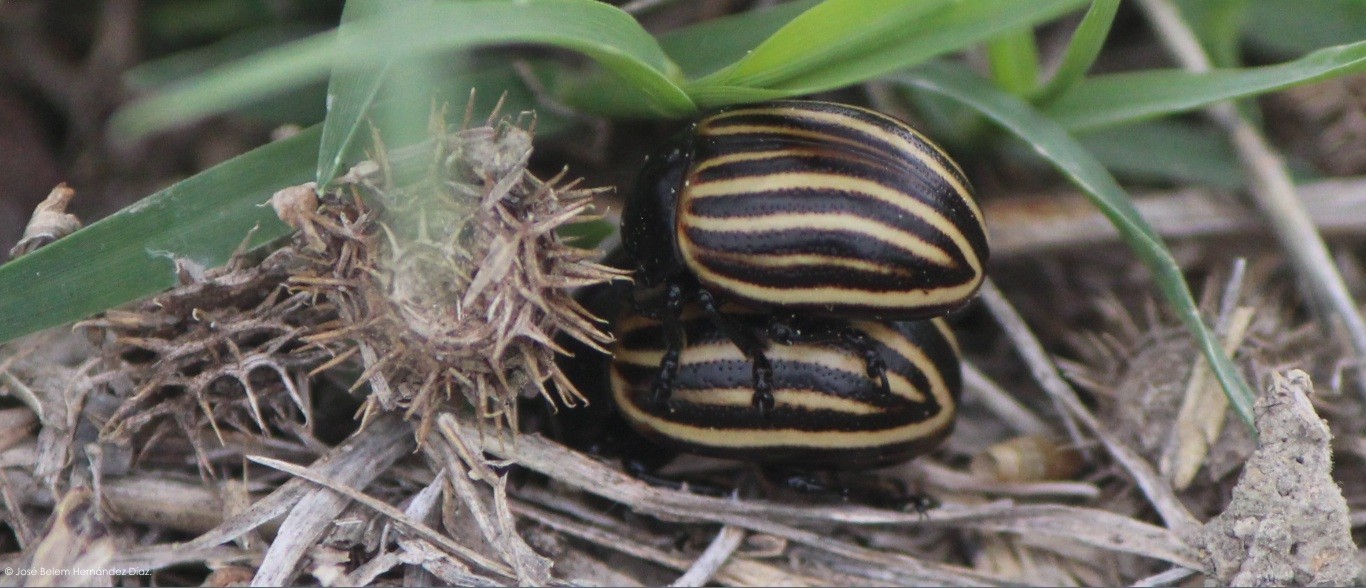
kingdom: Animalia
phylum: Arthropoda
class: Insecta
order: Coleoptera
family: Chrysomelidae
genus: Leptinotarsa
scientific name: Leptinotarsa
